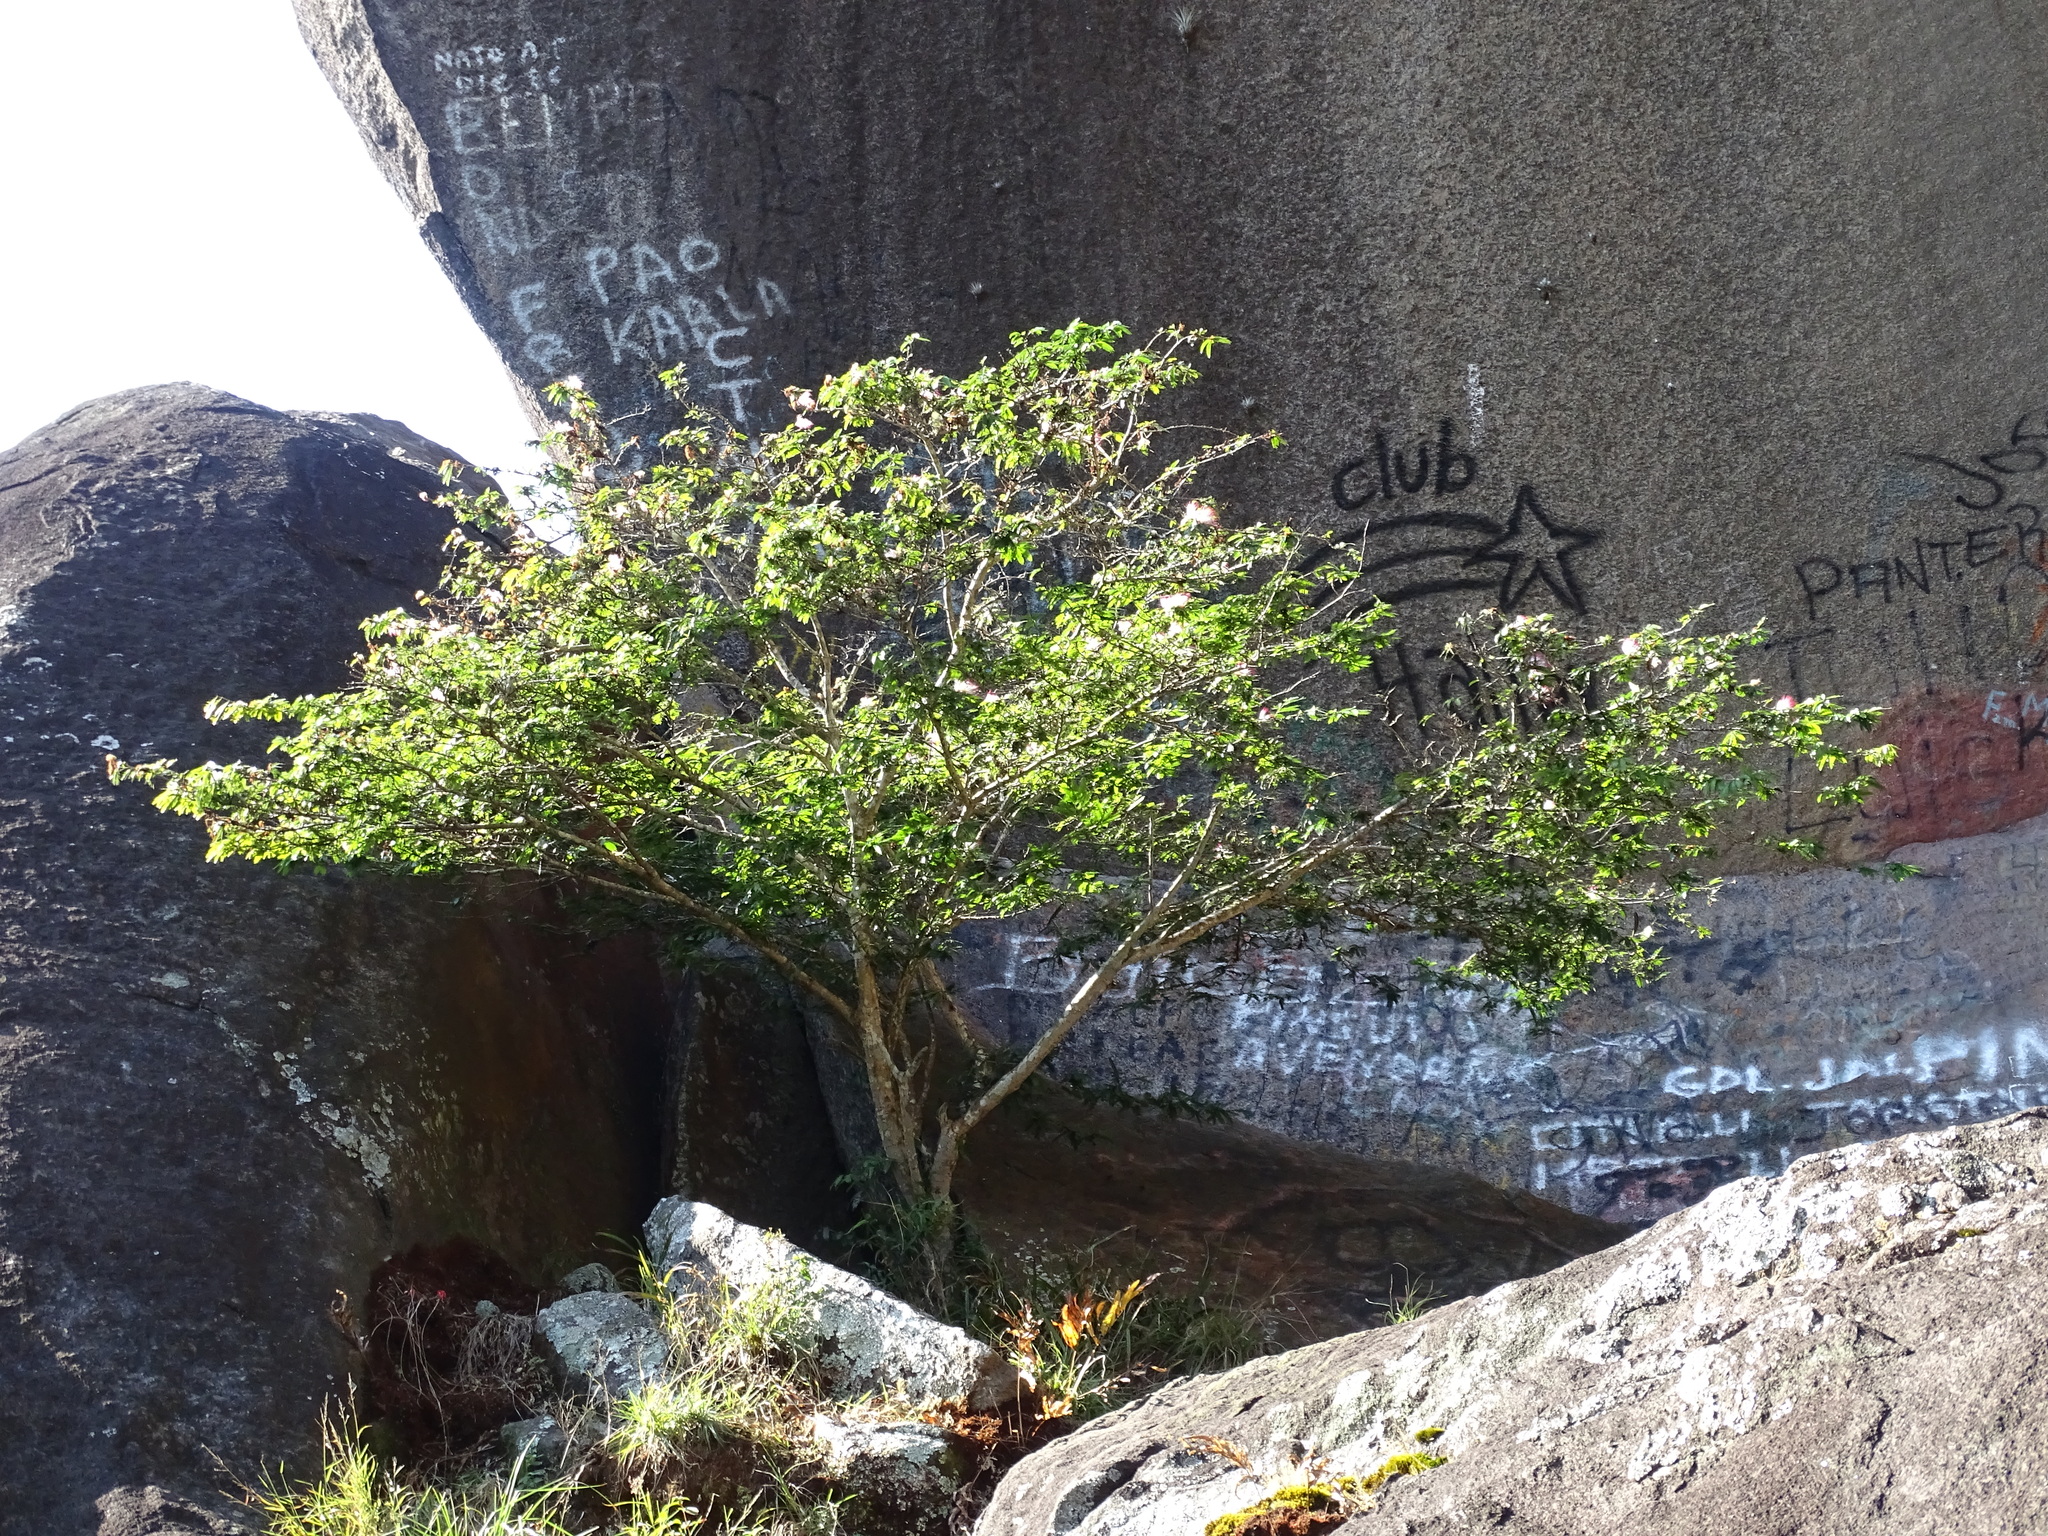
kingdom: Plantae
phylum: Tracheophyta
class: Magnoliopsida
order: Fabales
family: Fabaceae
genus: Calliandra
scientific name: Calliandra magdalenae
